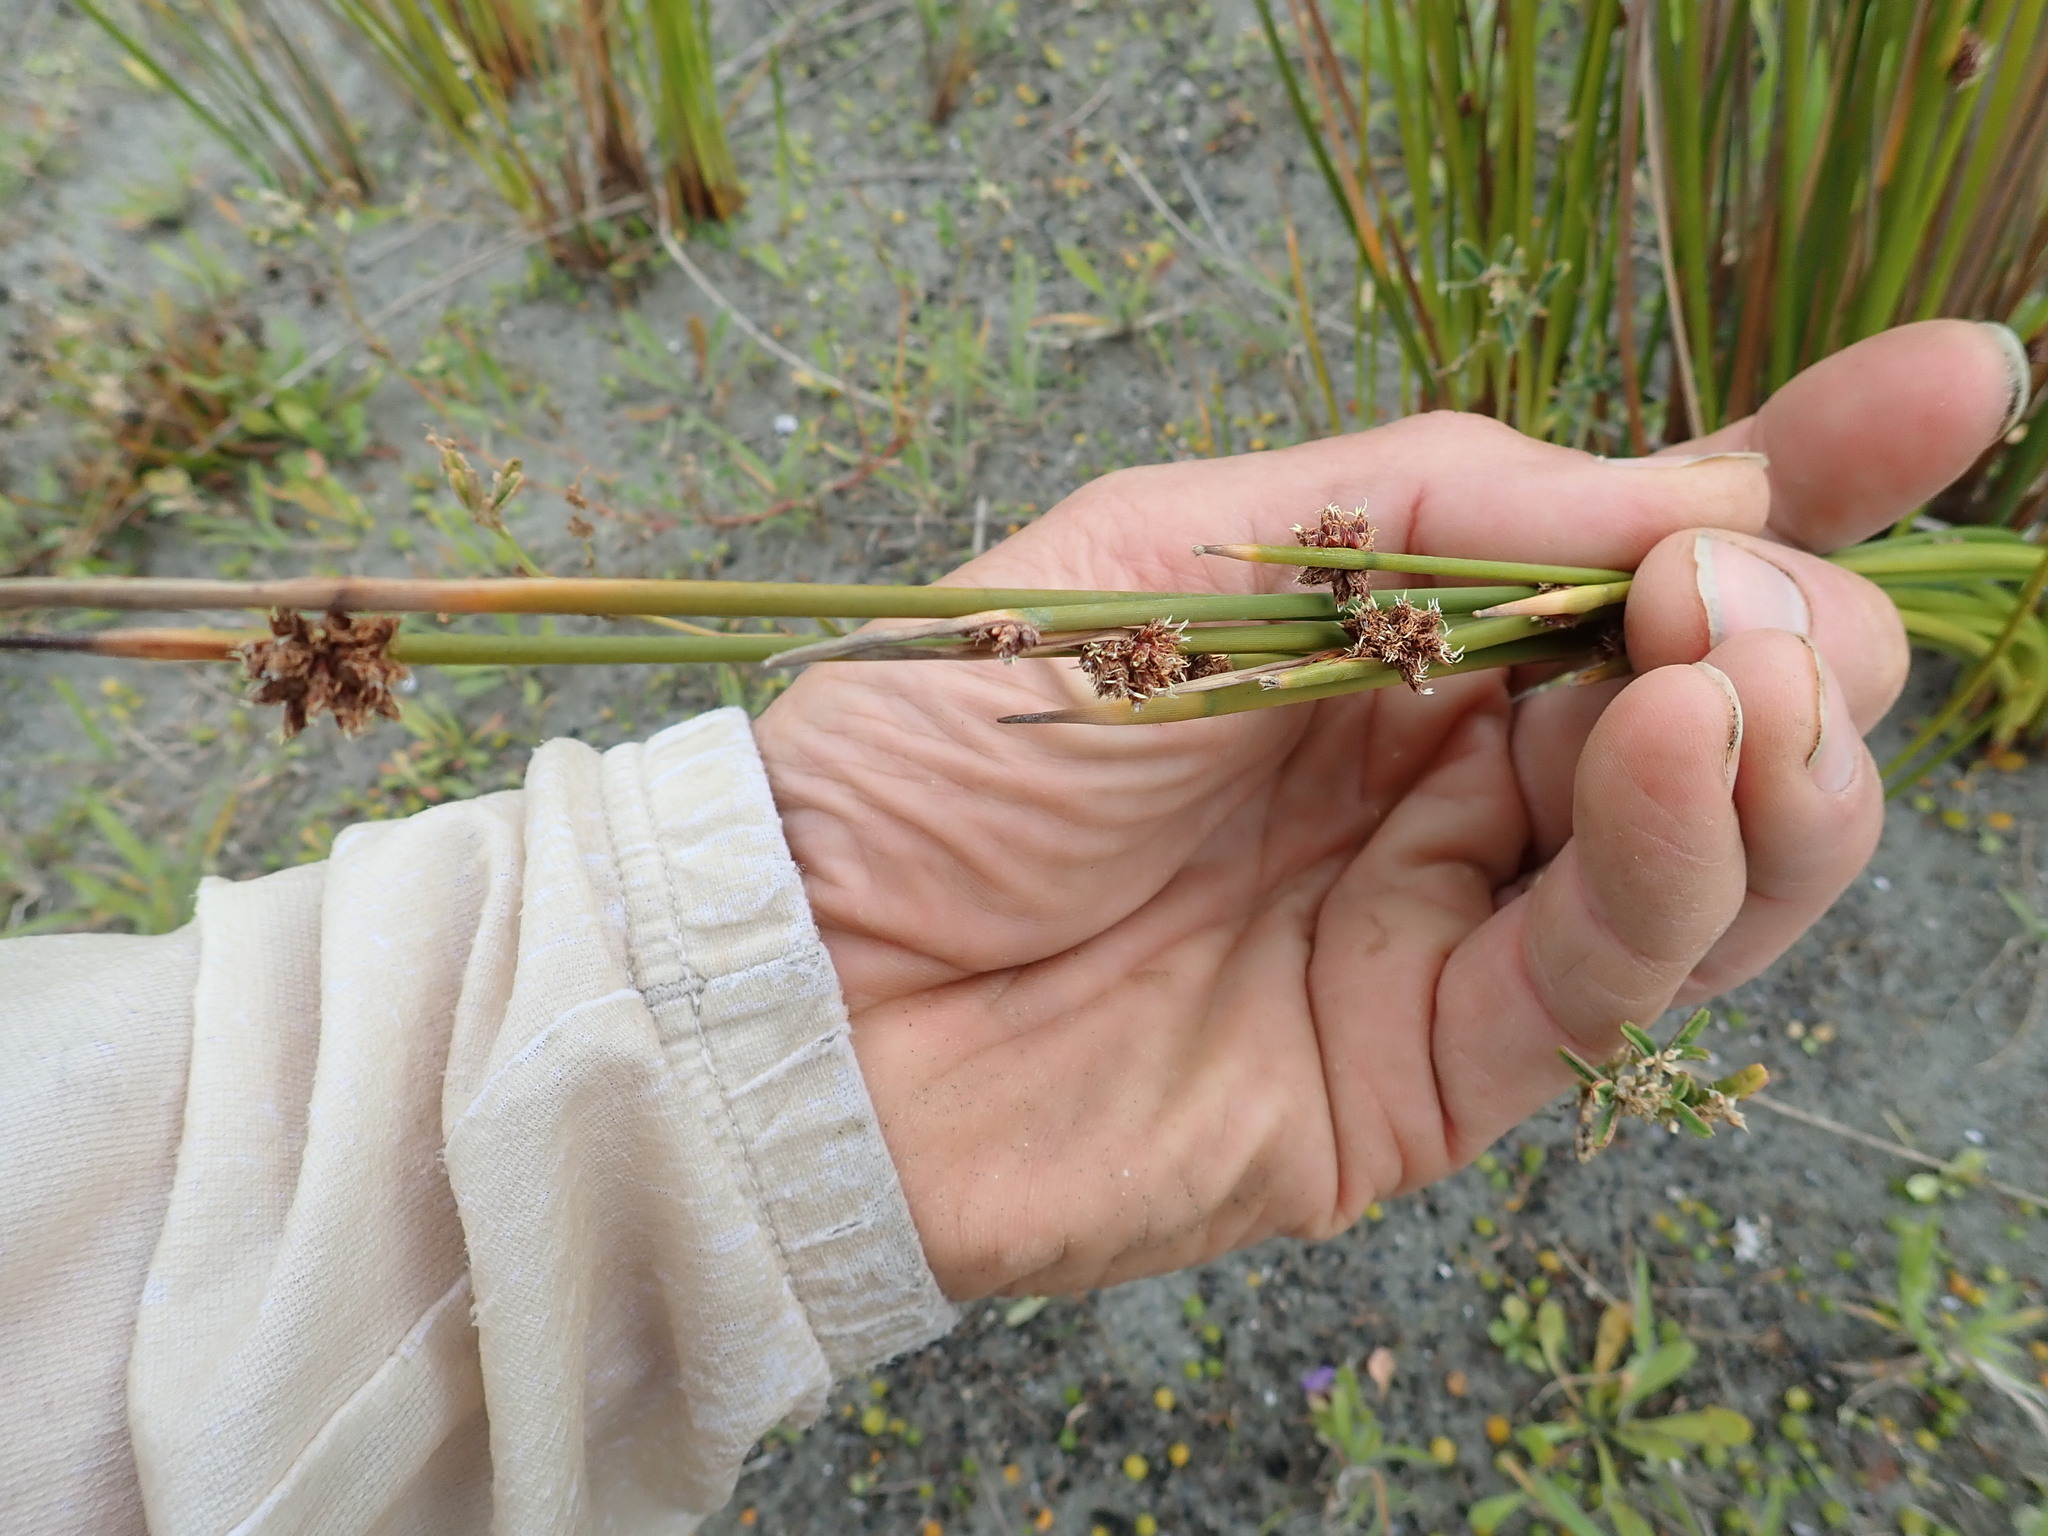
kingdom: Plantae
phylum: Tracheophyta
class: Liliopsida
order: Poales
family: Cyperaceae
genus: Ficinia
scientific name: Ficinia nodosa
